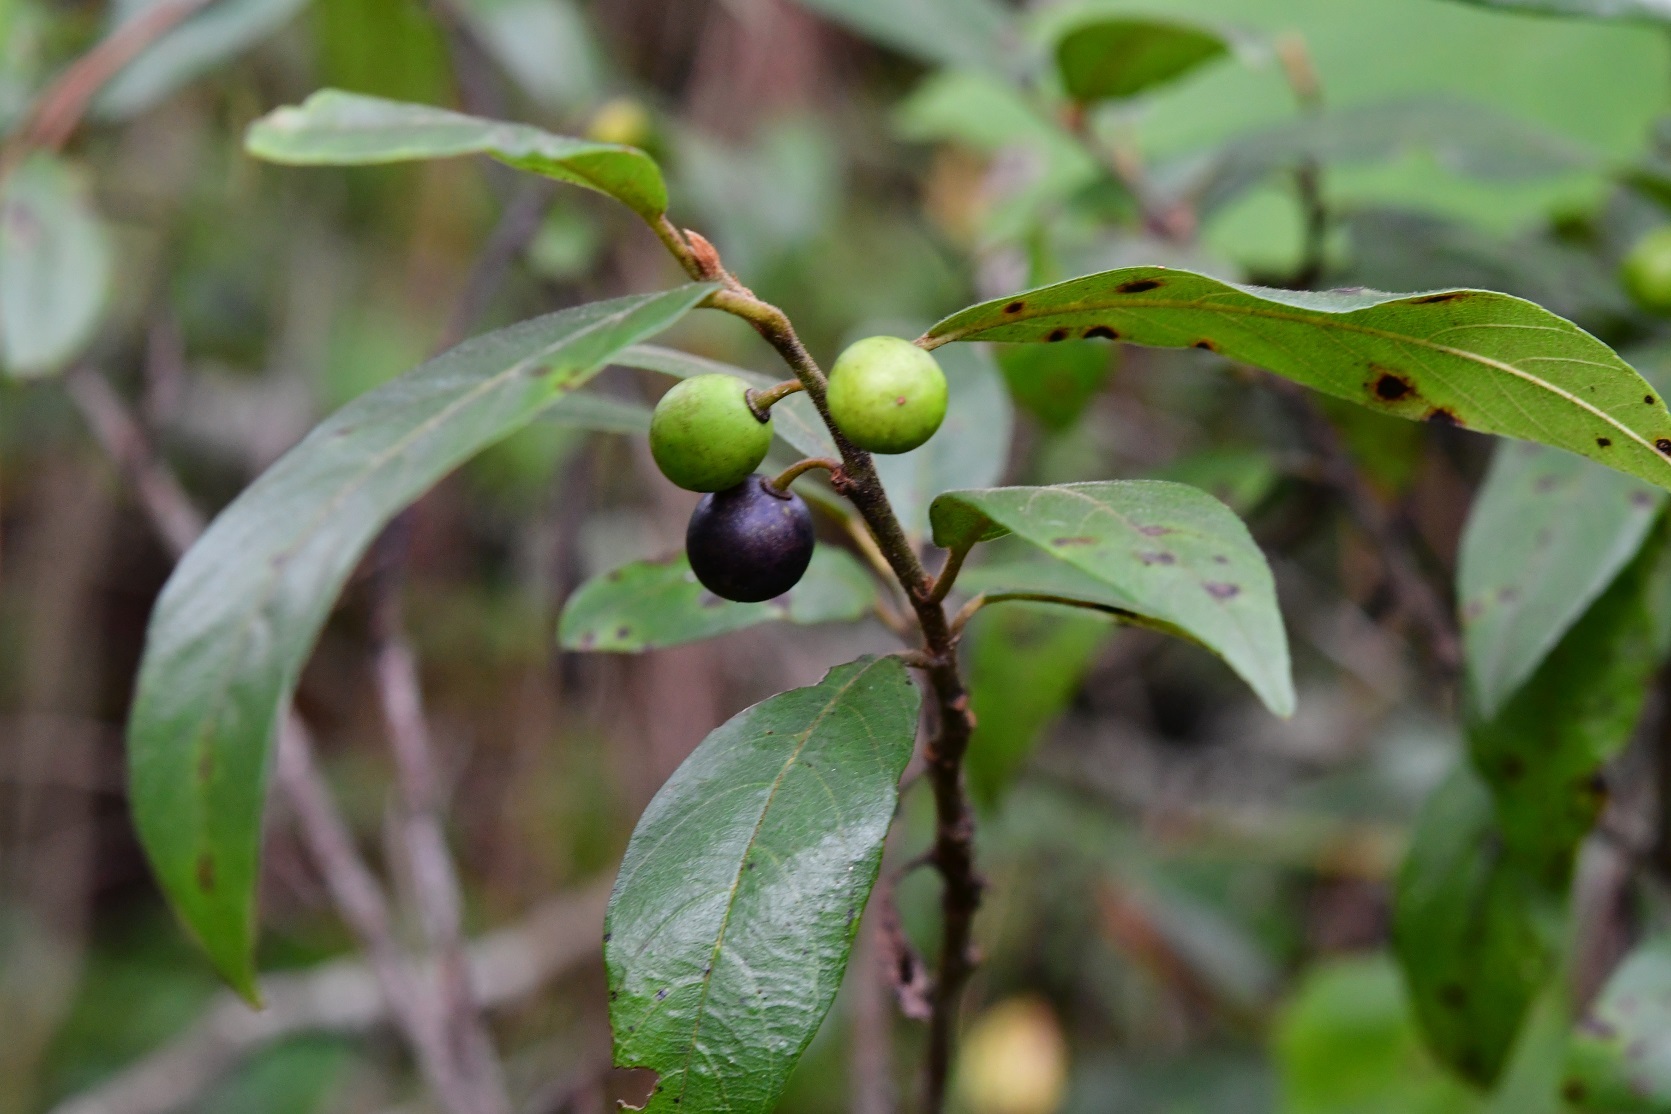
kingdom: Plantae
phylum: Tracheophyta
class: Magnoliopsida
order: Rosales
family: Rhamnaceae
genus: Frangula
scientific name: Frangula mucronata
